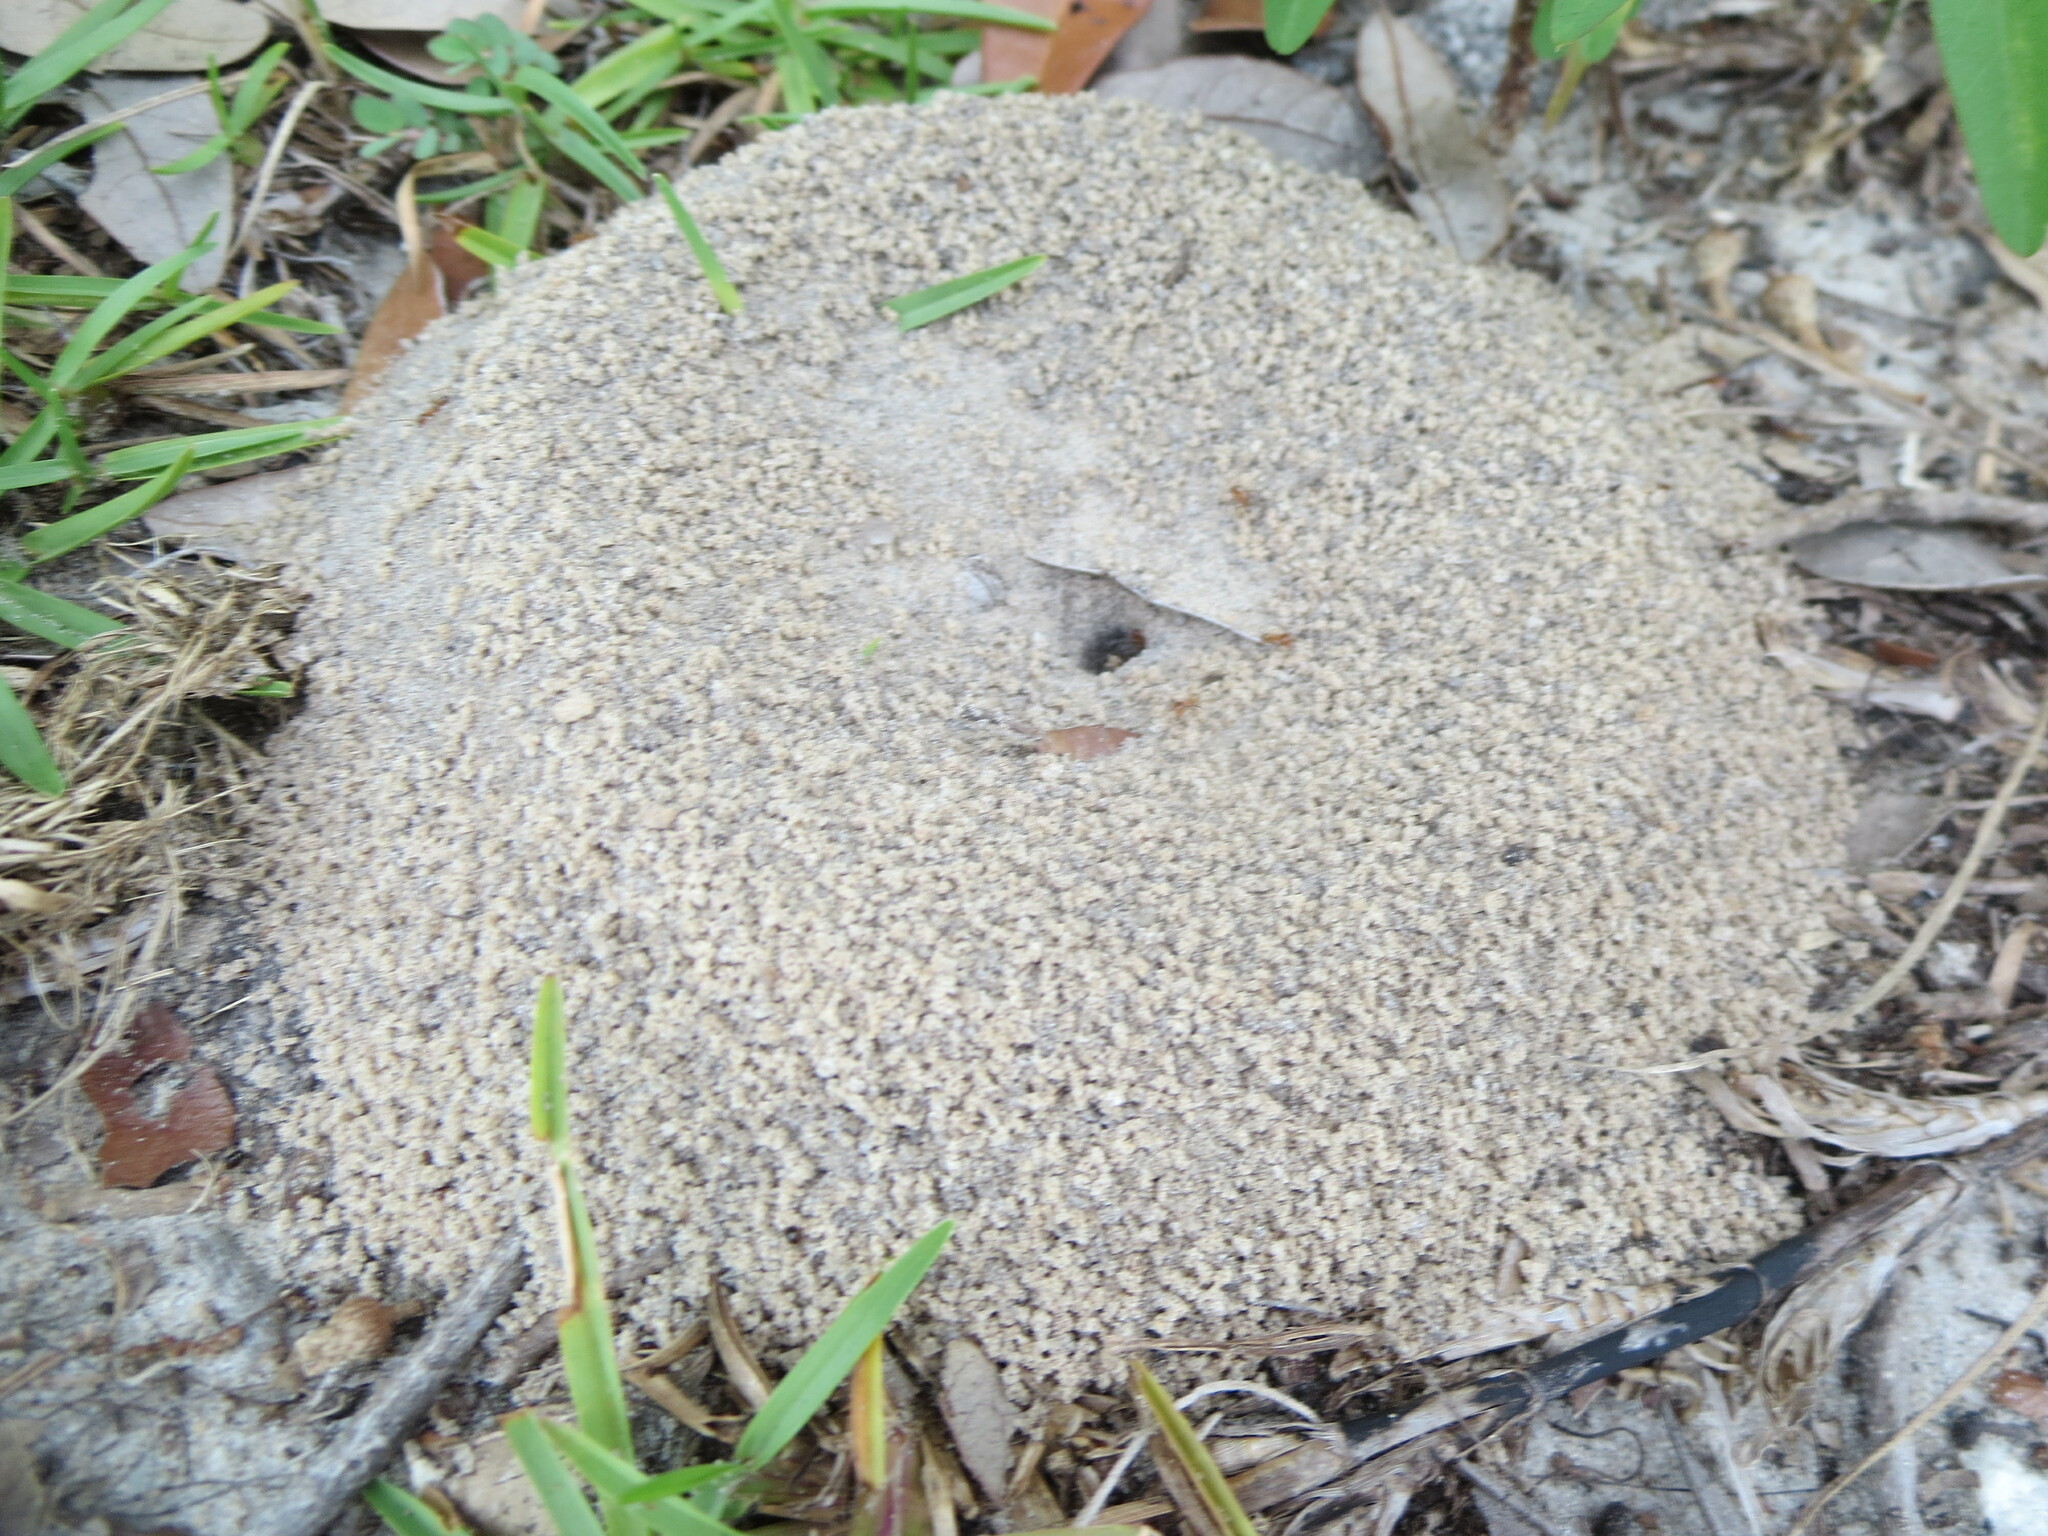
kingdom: Animalia
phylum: Arthropoda
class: Insecta
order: Hymenoptera
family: Formicidae
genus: Dorymyrmex
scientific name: Dorymyrmex bureni
